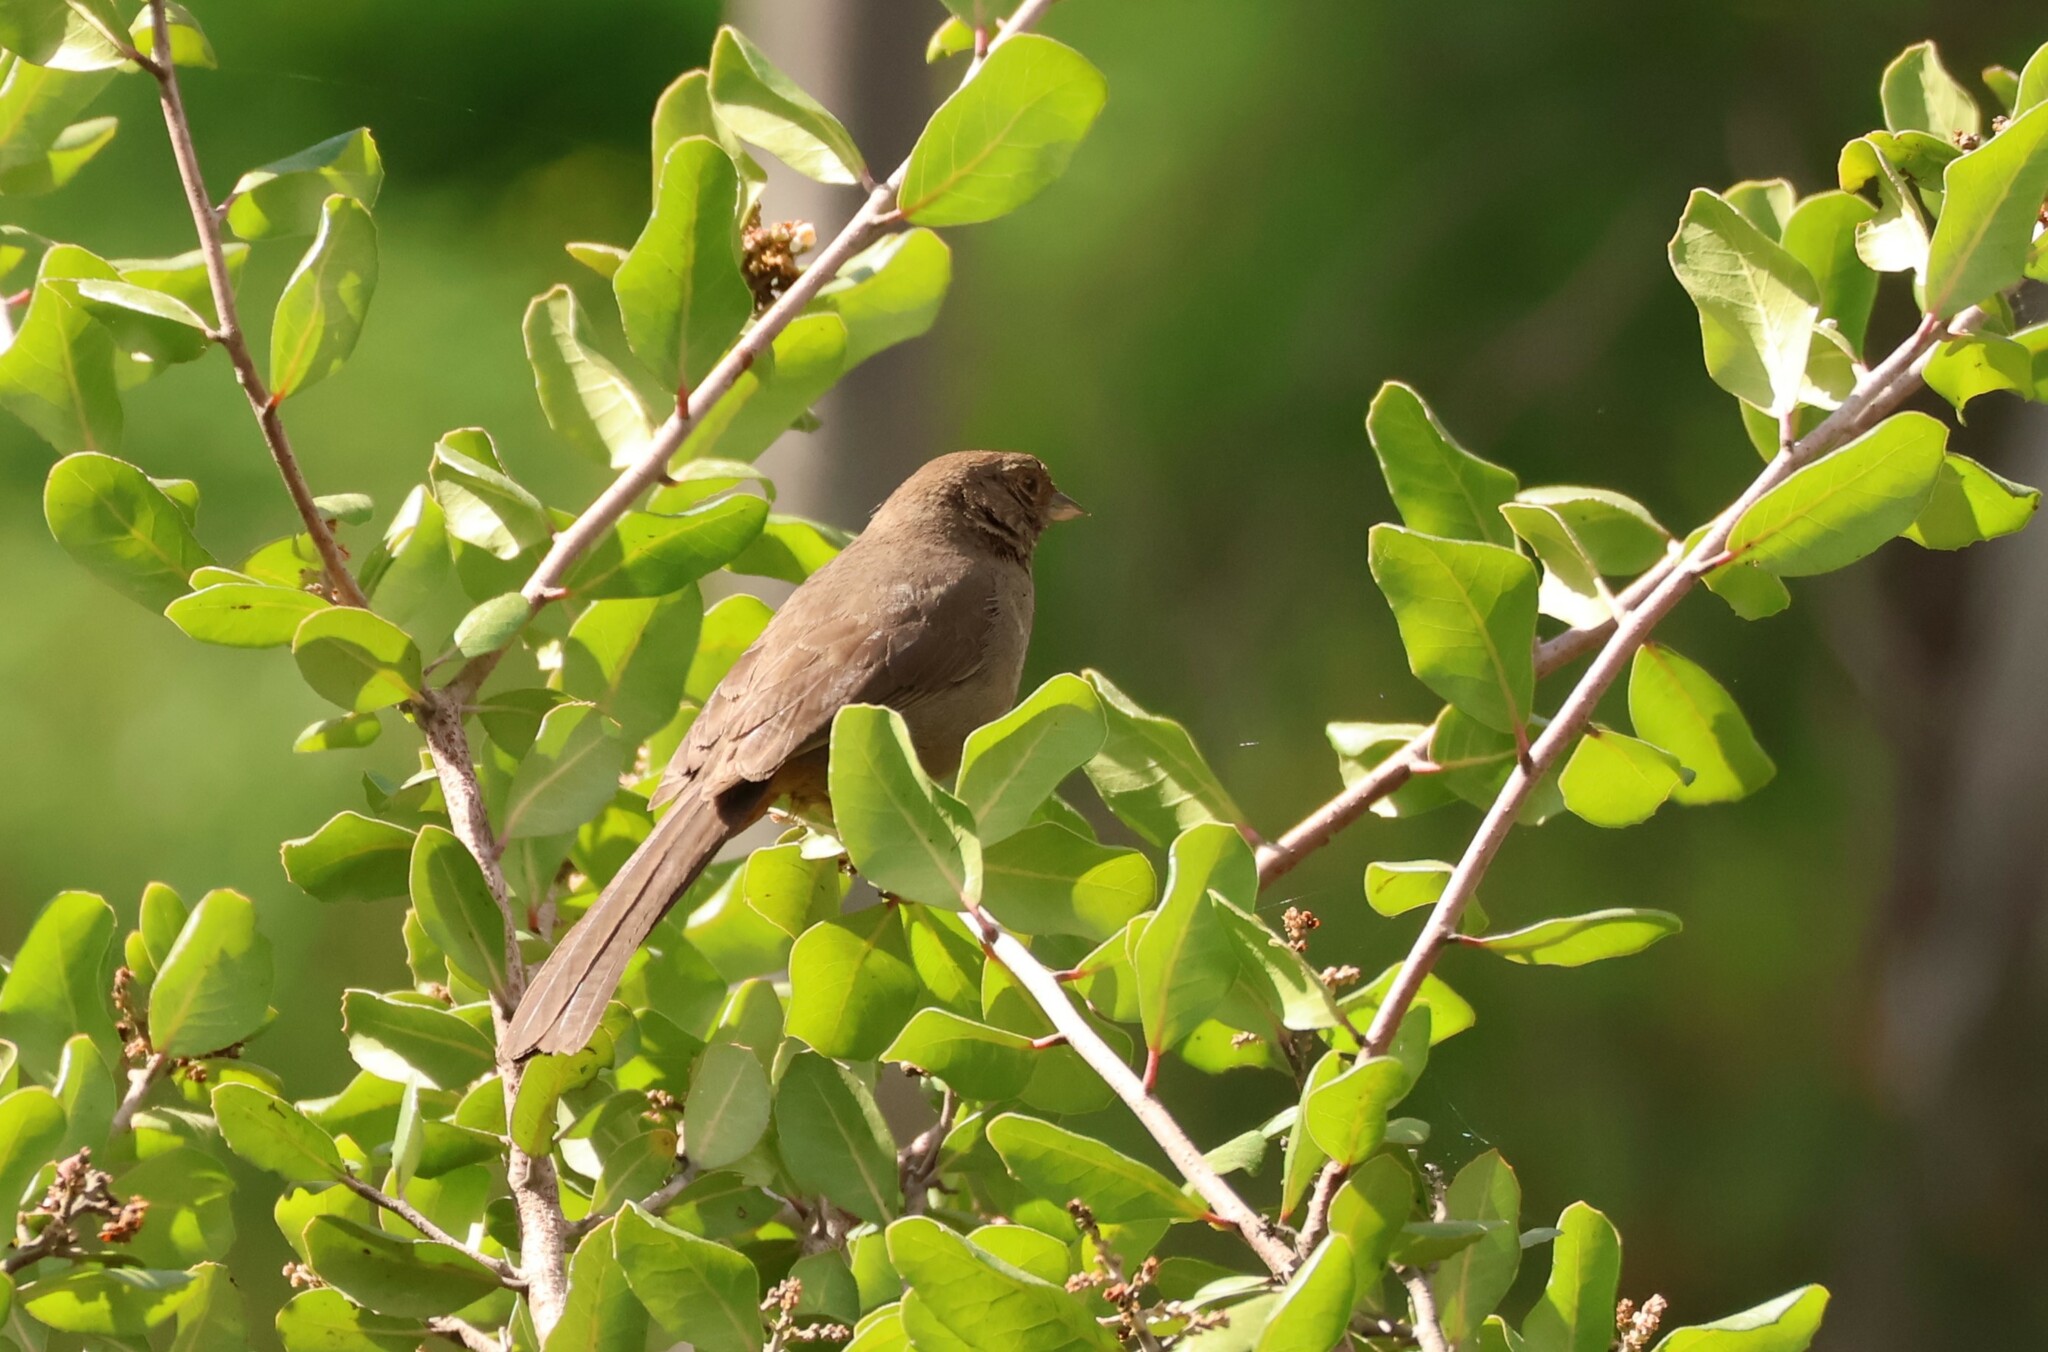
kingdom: Animalia
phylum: Chordata
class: Aves
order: Passeriformes
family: Passerellidae
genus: Melozone
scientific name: Melozone crissalis
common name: California towhee
